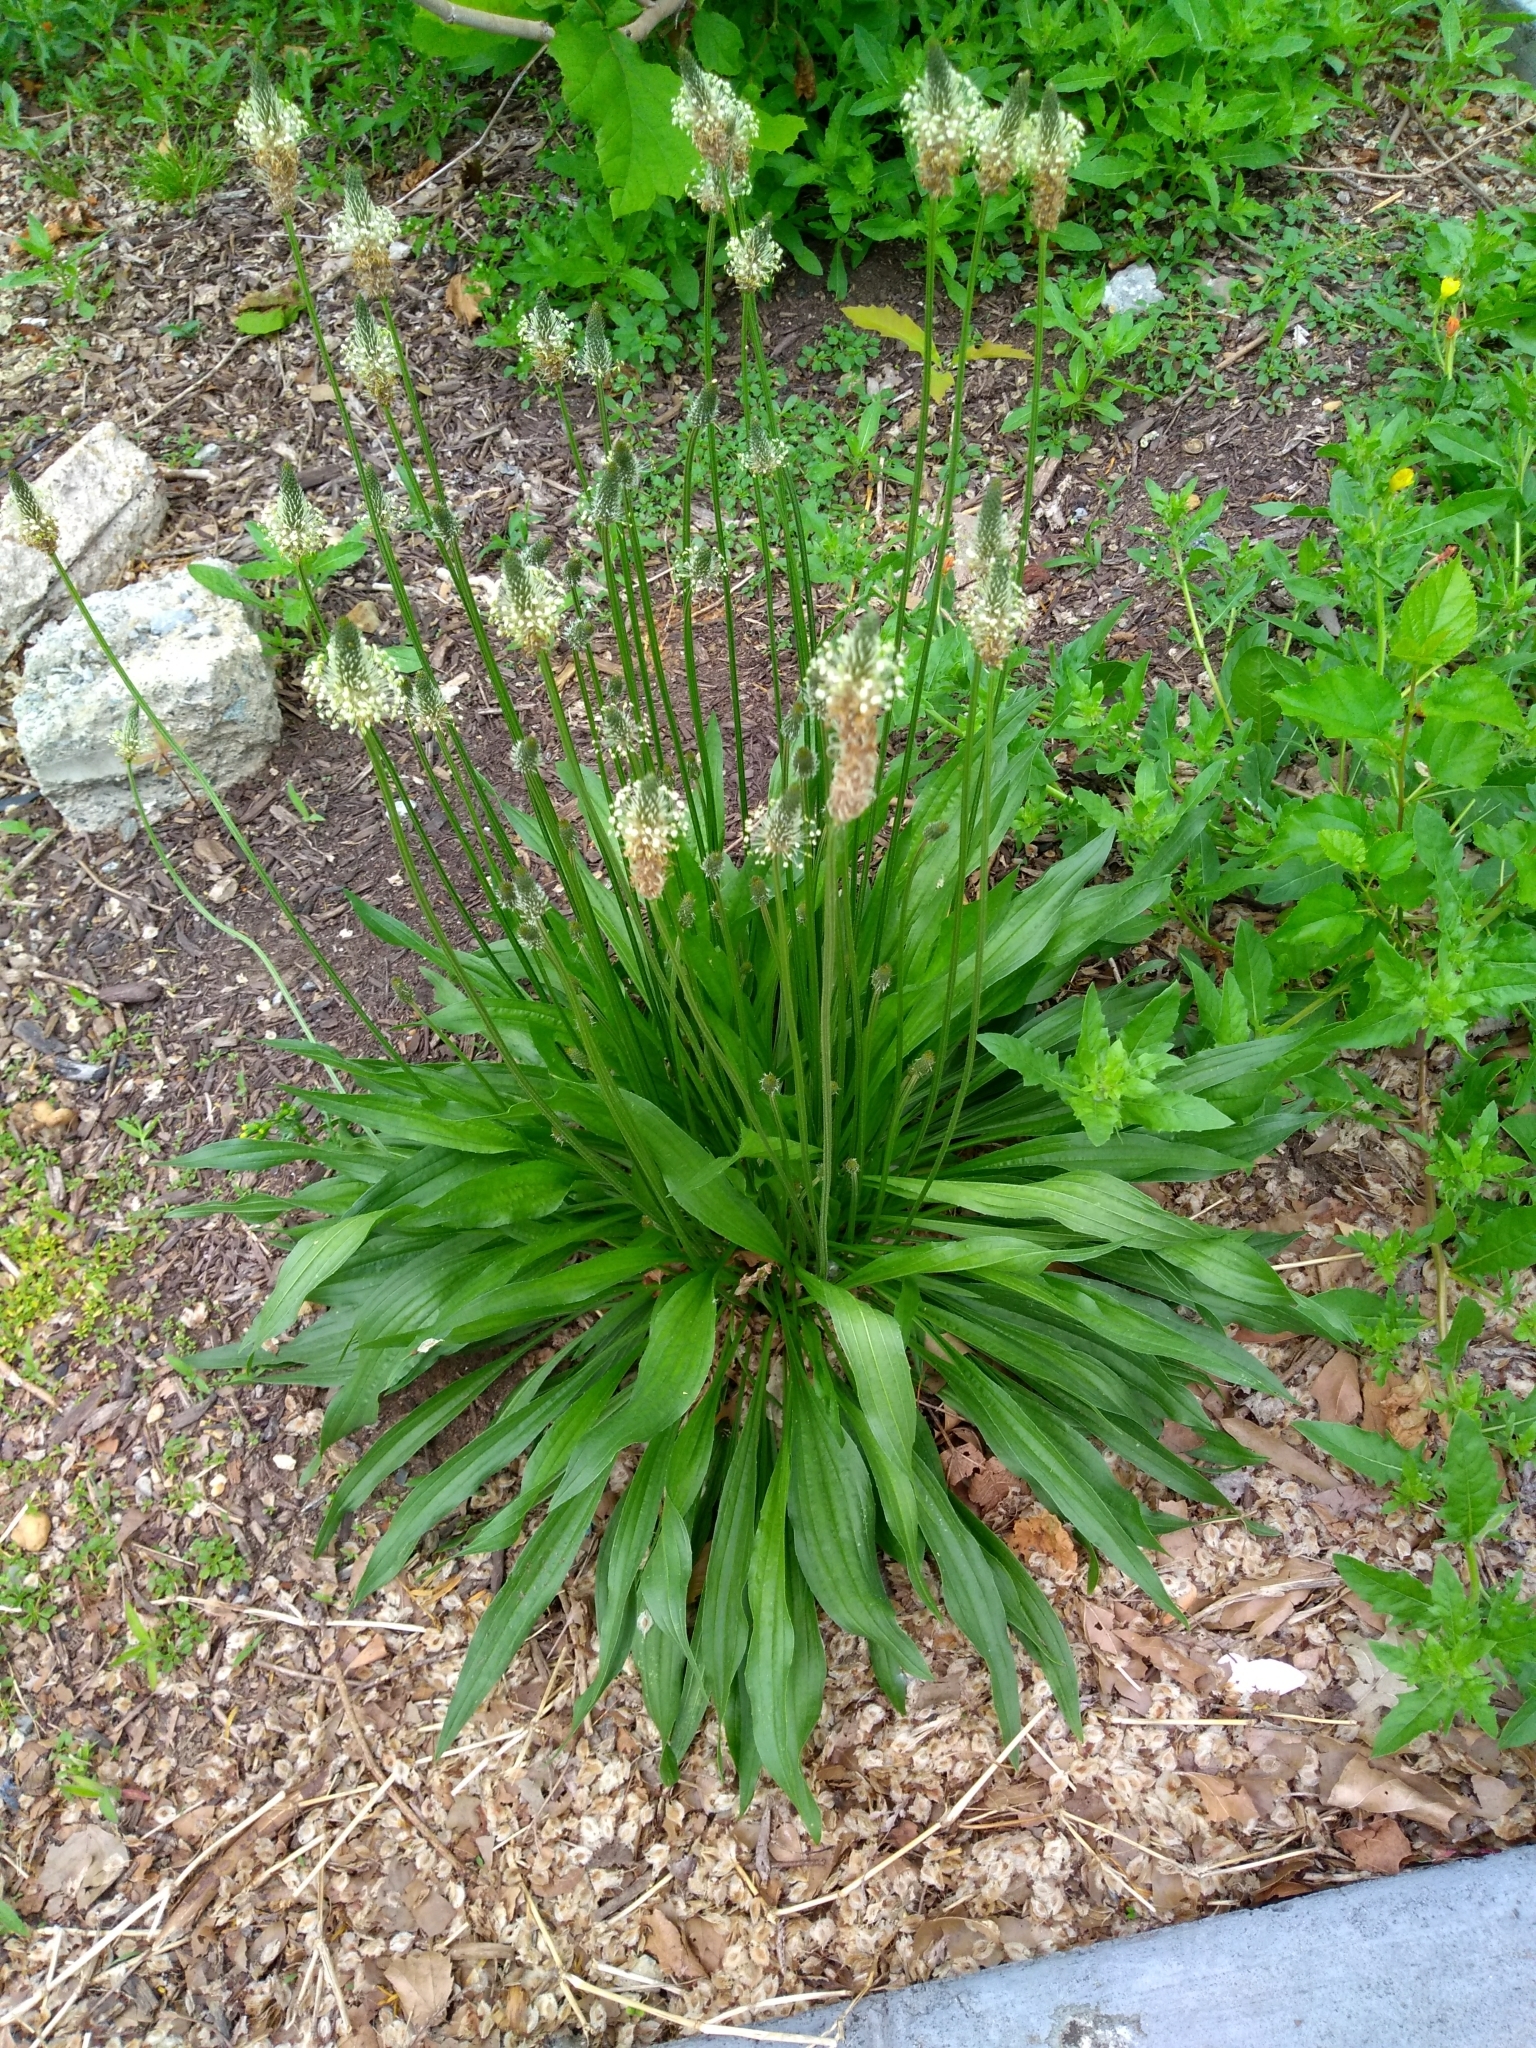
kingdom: Plantae
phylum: Tracheophyta
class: Magnoliopsida
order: Lamiales
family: Plantaginaceae
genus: Plantago
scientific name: Plantago lanceolata
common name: Ribwort plantain
